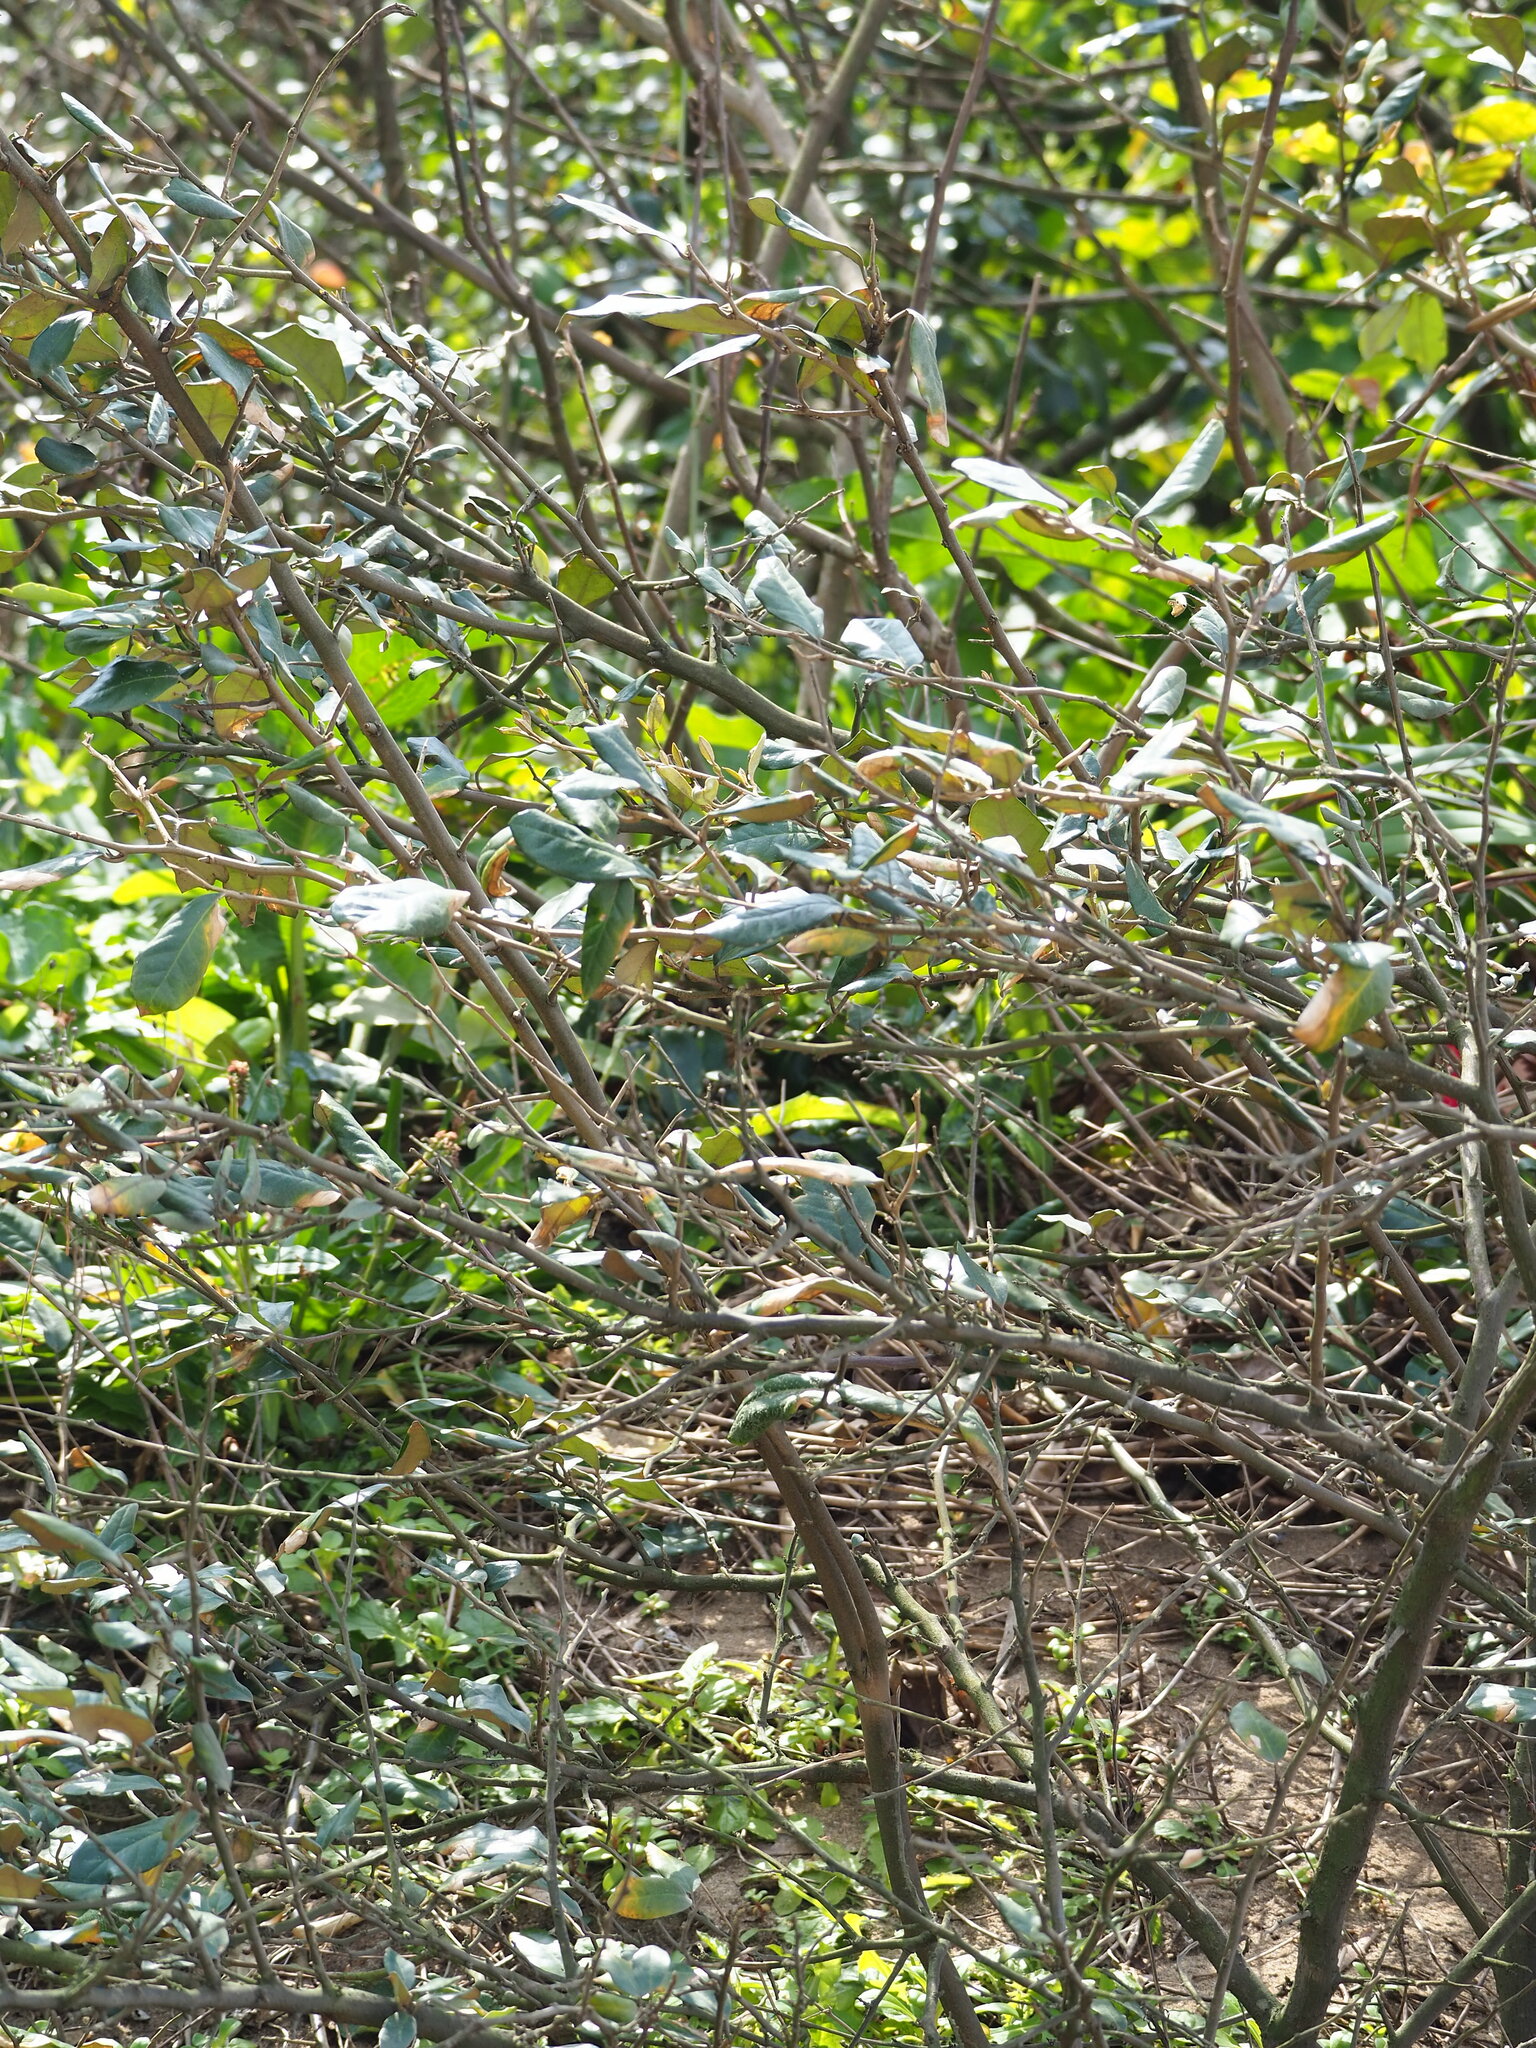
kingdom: Plantae
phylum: Tracheophyta
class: Magnoliopsida
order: Rosales
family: Elaeagnaceae
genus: Elaeagnus
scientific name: Elaeagnus formosana
